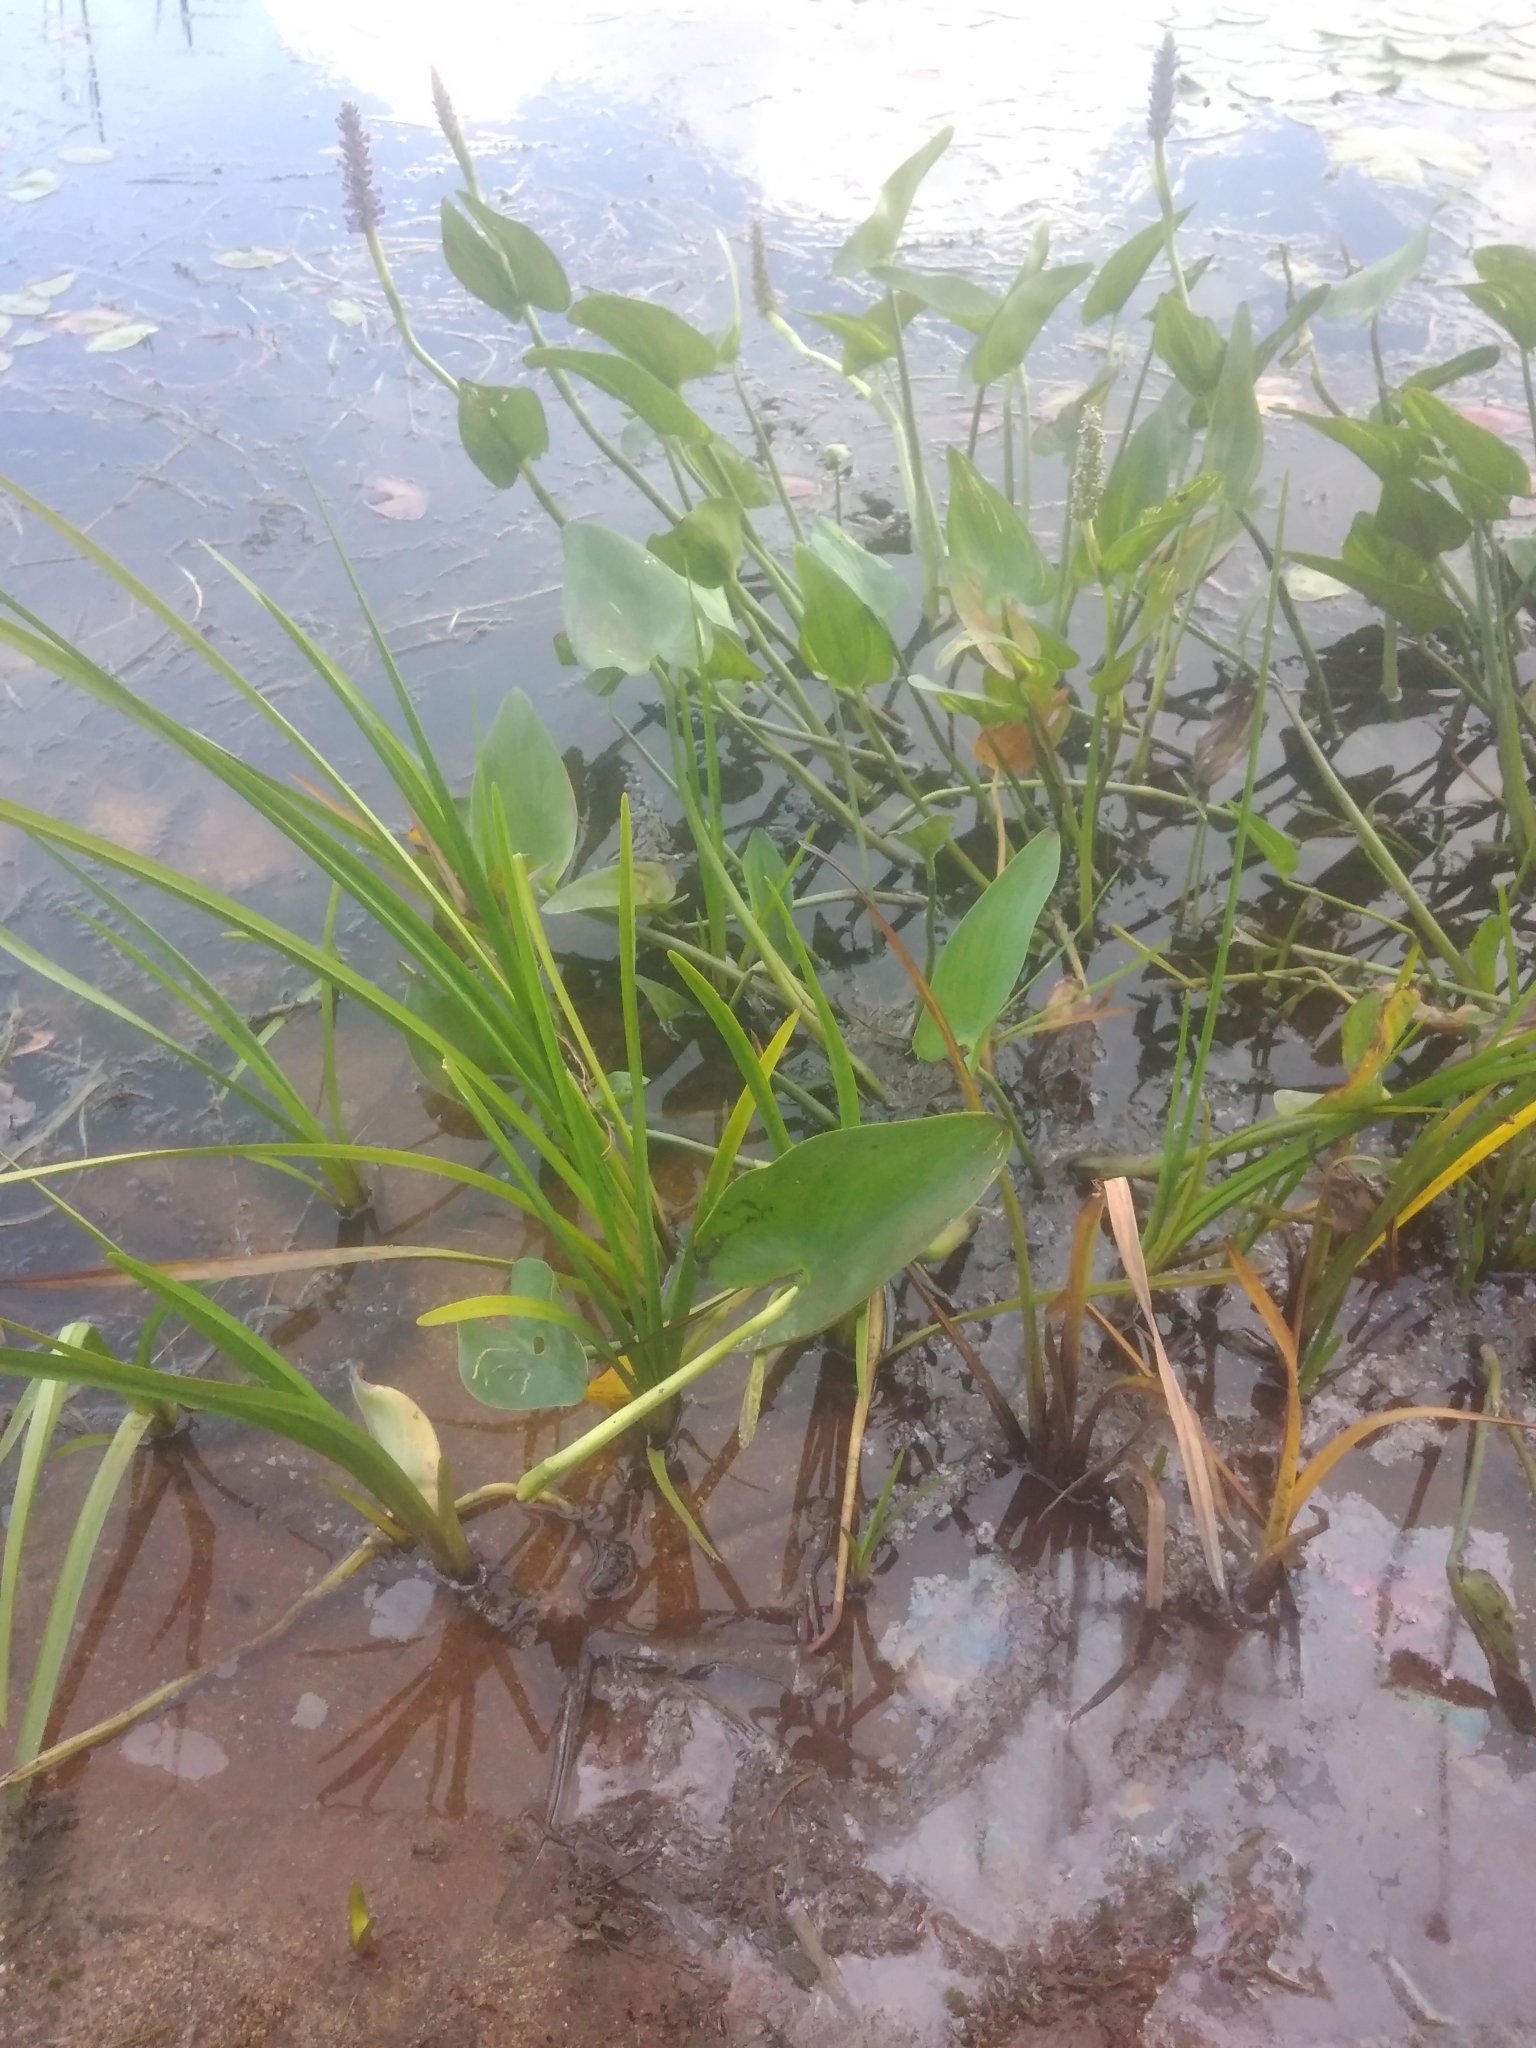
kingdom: Plantae
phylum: Tracheophyta
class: Liliopsida
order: Commelinales
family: Pontederiaceae
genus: Pontederia
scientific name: Pontederia cordata
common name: Pickerelweed
